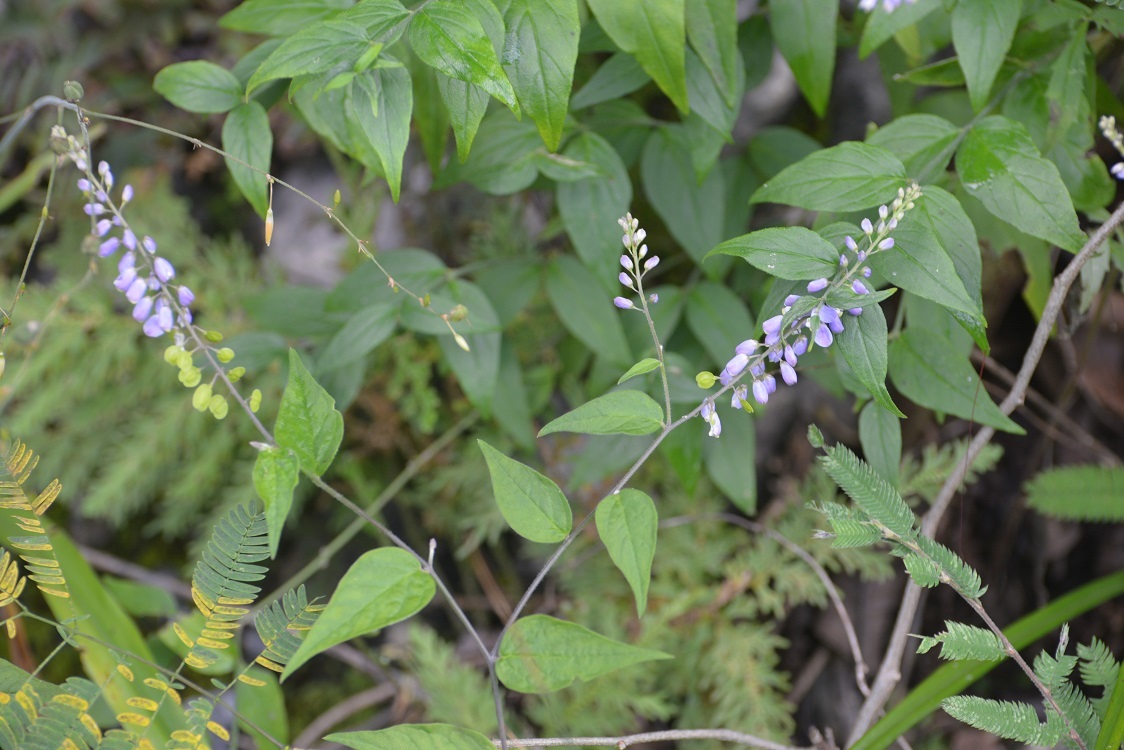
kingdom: Plantae
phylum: Tracheophyta
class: Magnoliopsida
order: Fabales
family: Polygalaceae
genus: Hebecarpa
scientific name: Hebecarpa costaricensis
